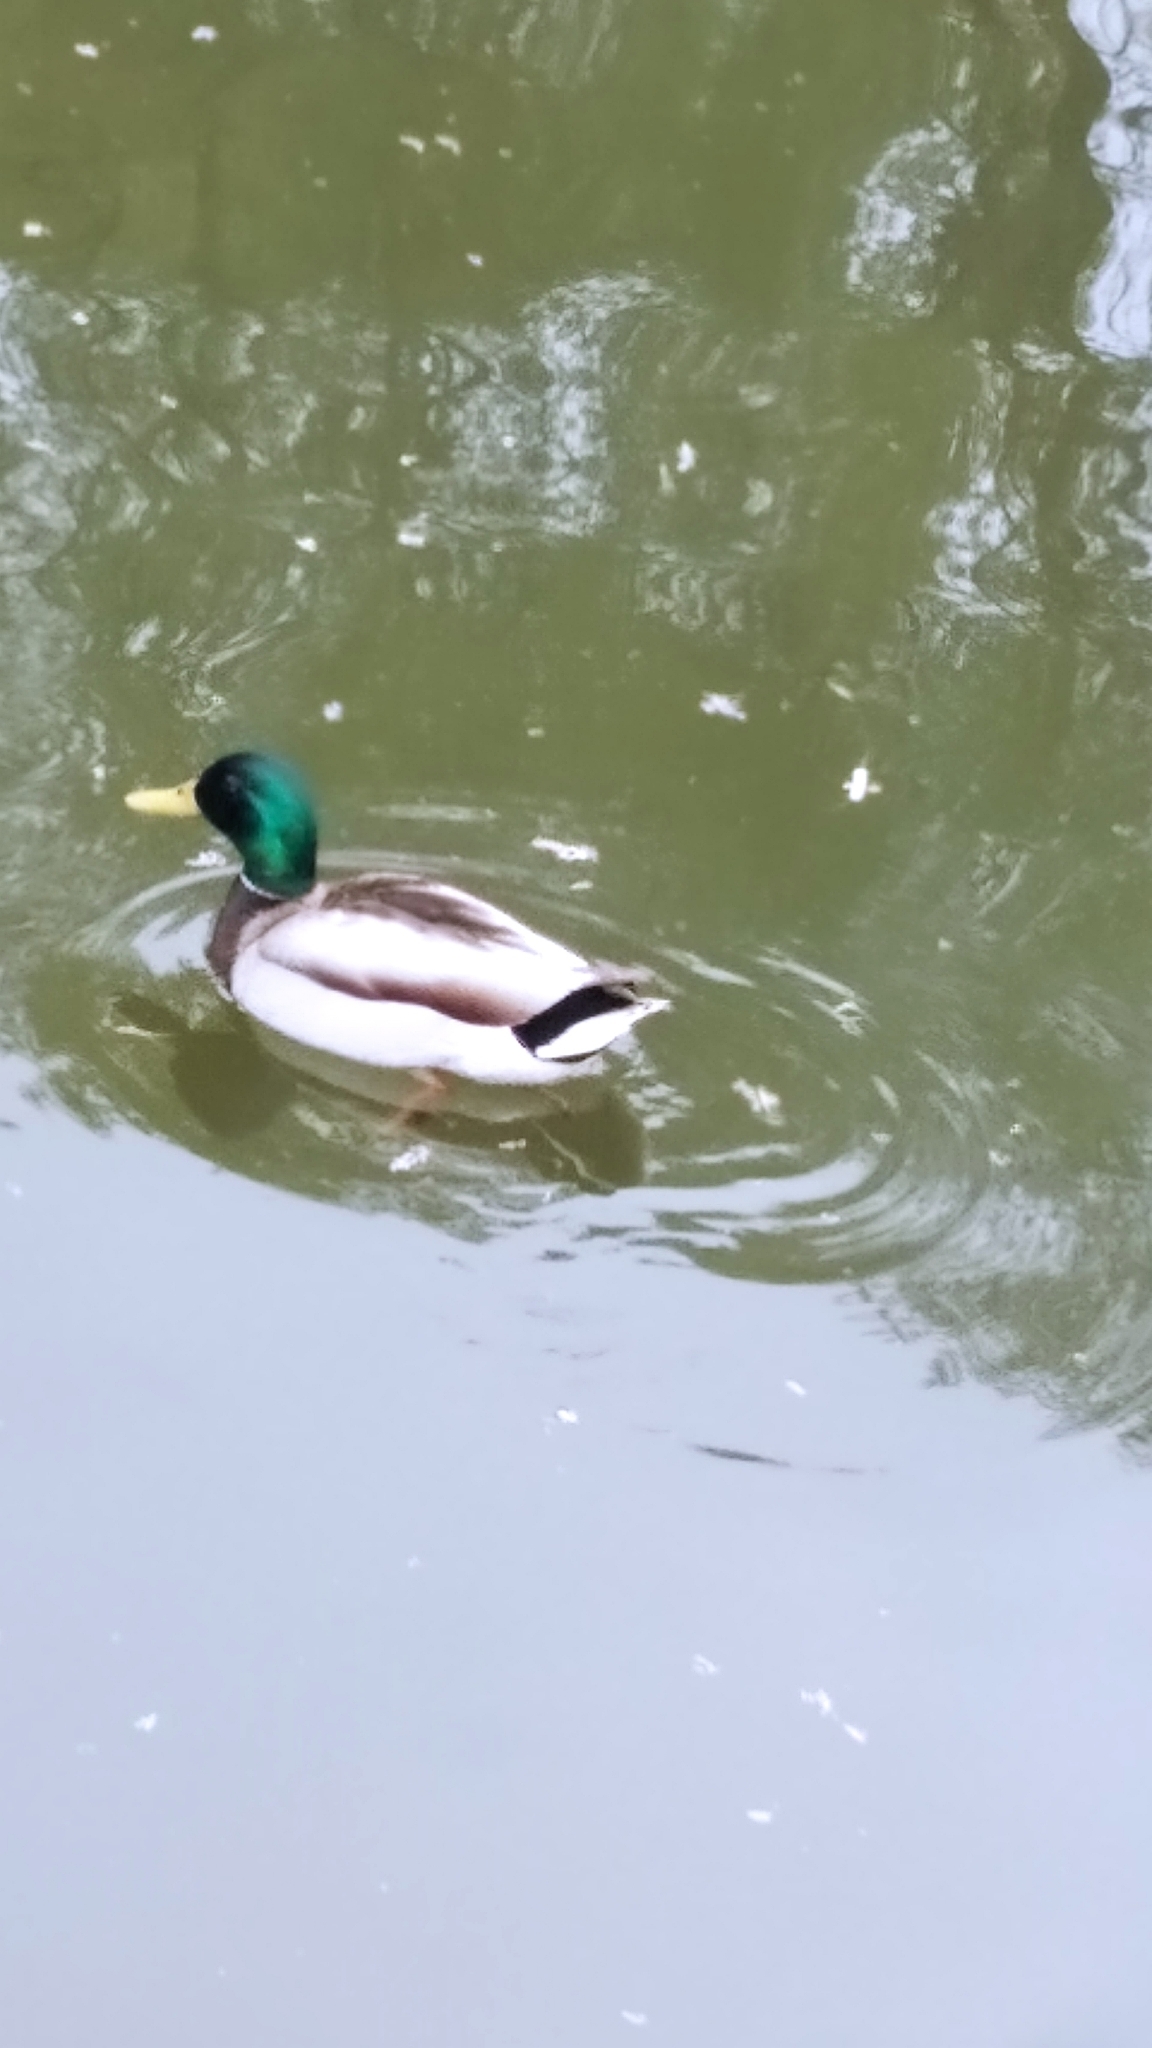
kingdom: Animalia
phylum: Chordata
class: Aves
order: Anseriformes
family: Anatidae
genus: Anas
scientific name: Anas platyrhynchos
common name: Mallard
